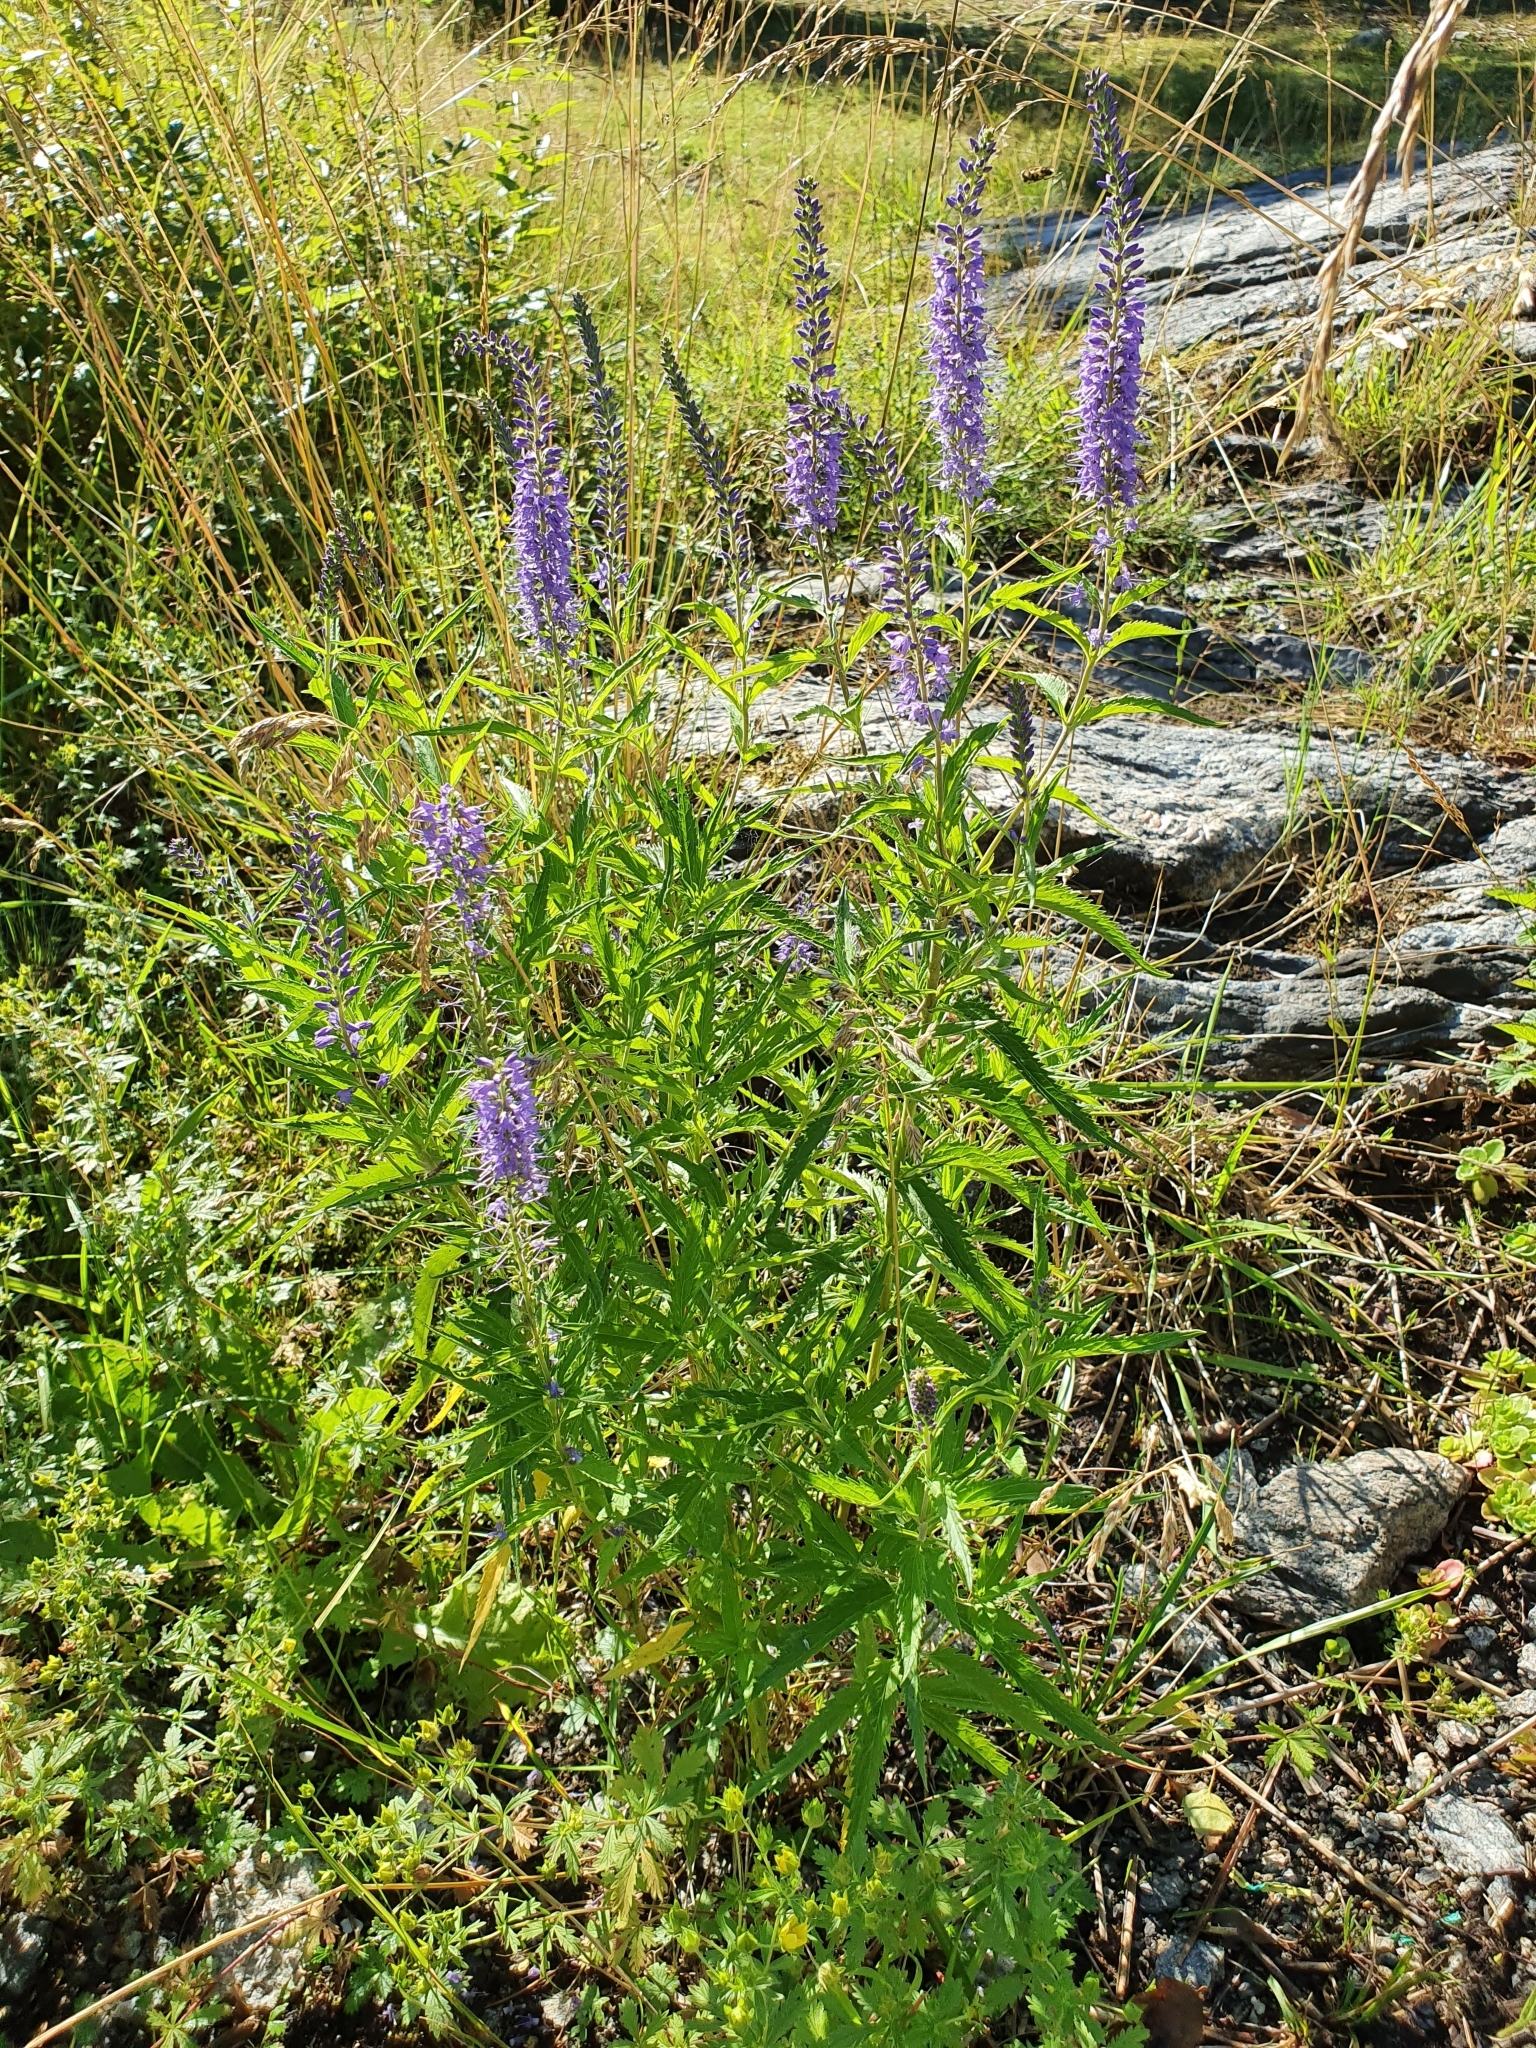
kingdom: Plantae
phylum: Tracheophyta
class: Magnoliopsida
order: Lamiales
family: Plantaginaceae
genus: Veronica
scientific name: Veronica longifolia
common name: Garden speedwell
